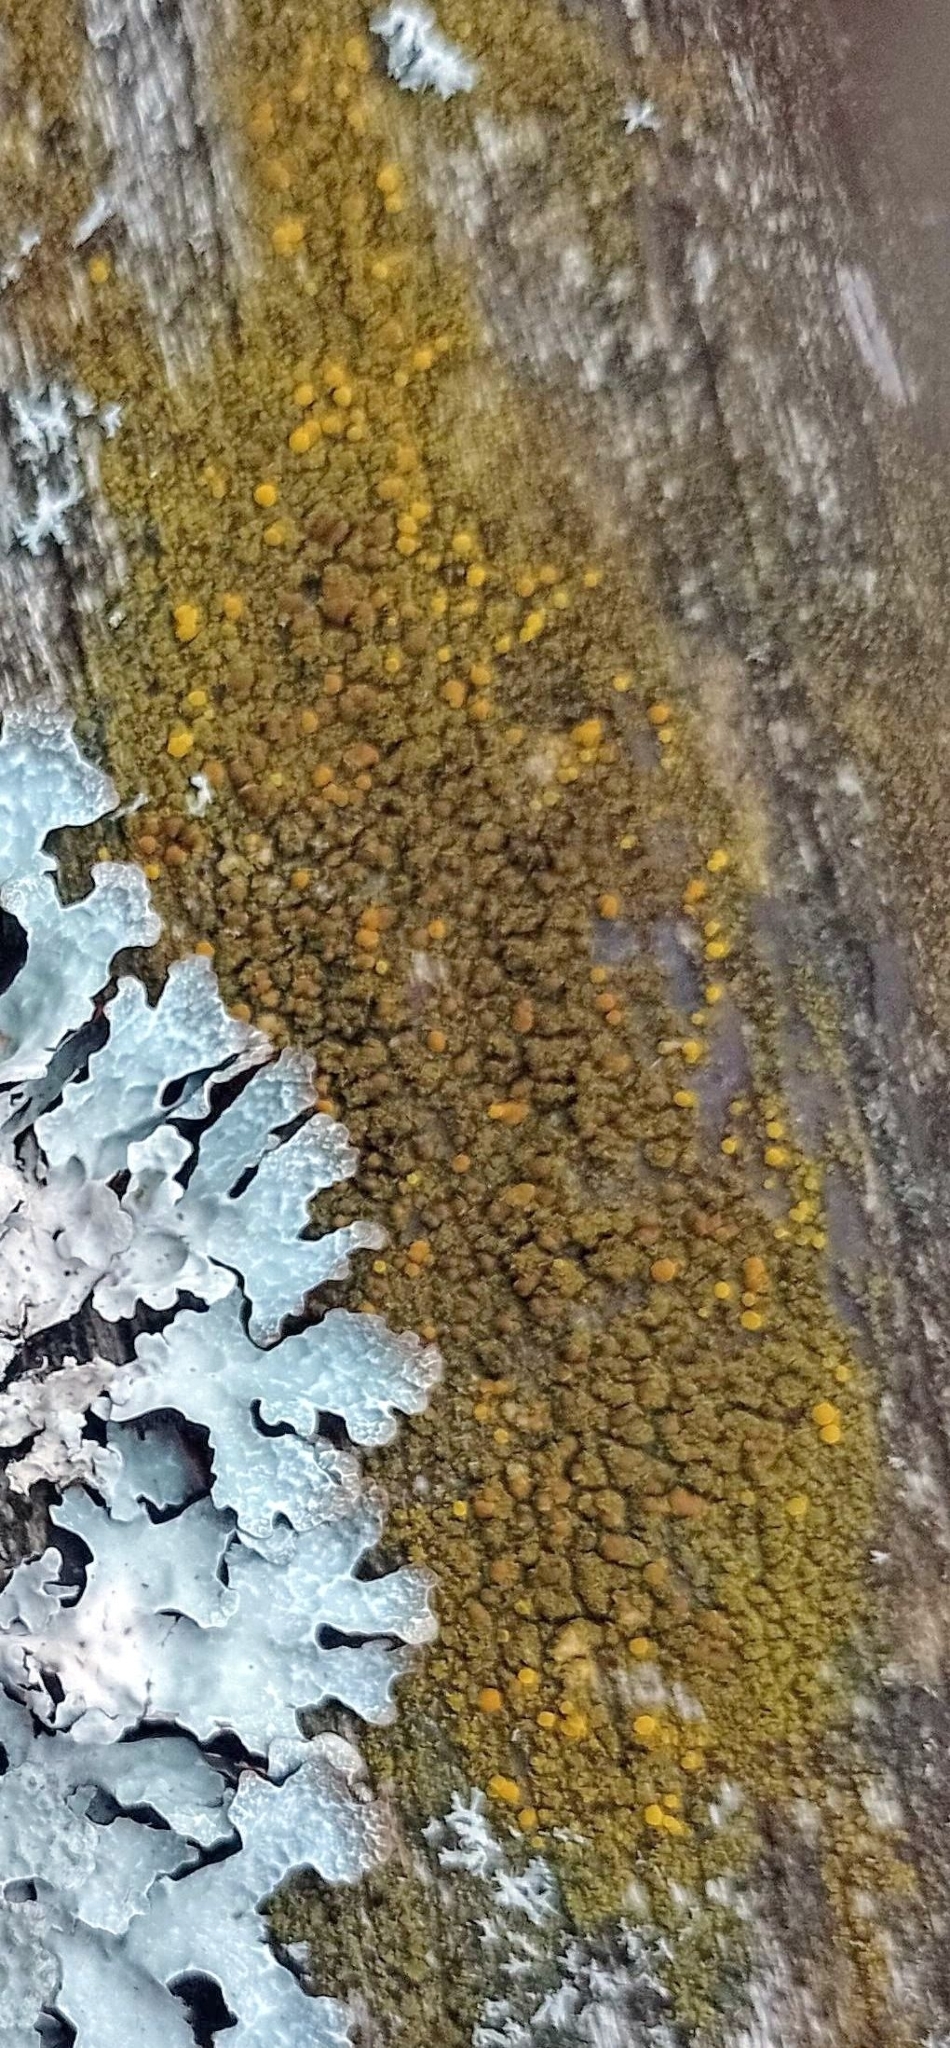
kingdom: Fungi
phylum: Ascomycota
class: Candelariomycetes
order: Candelariales
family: Candelariaceae
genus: Candelariella
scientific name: Candelariella vitellina
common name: Common goldspeck
